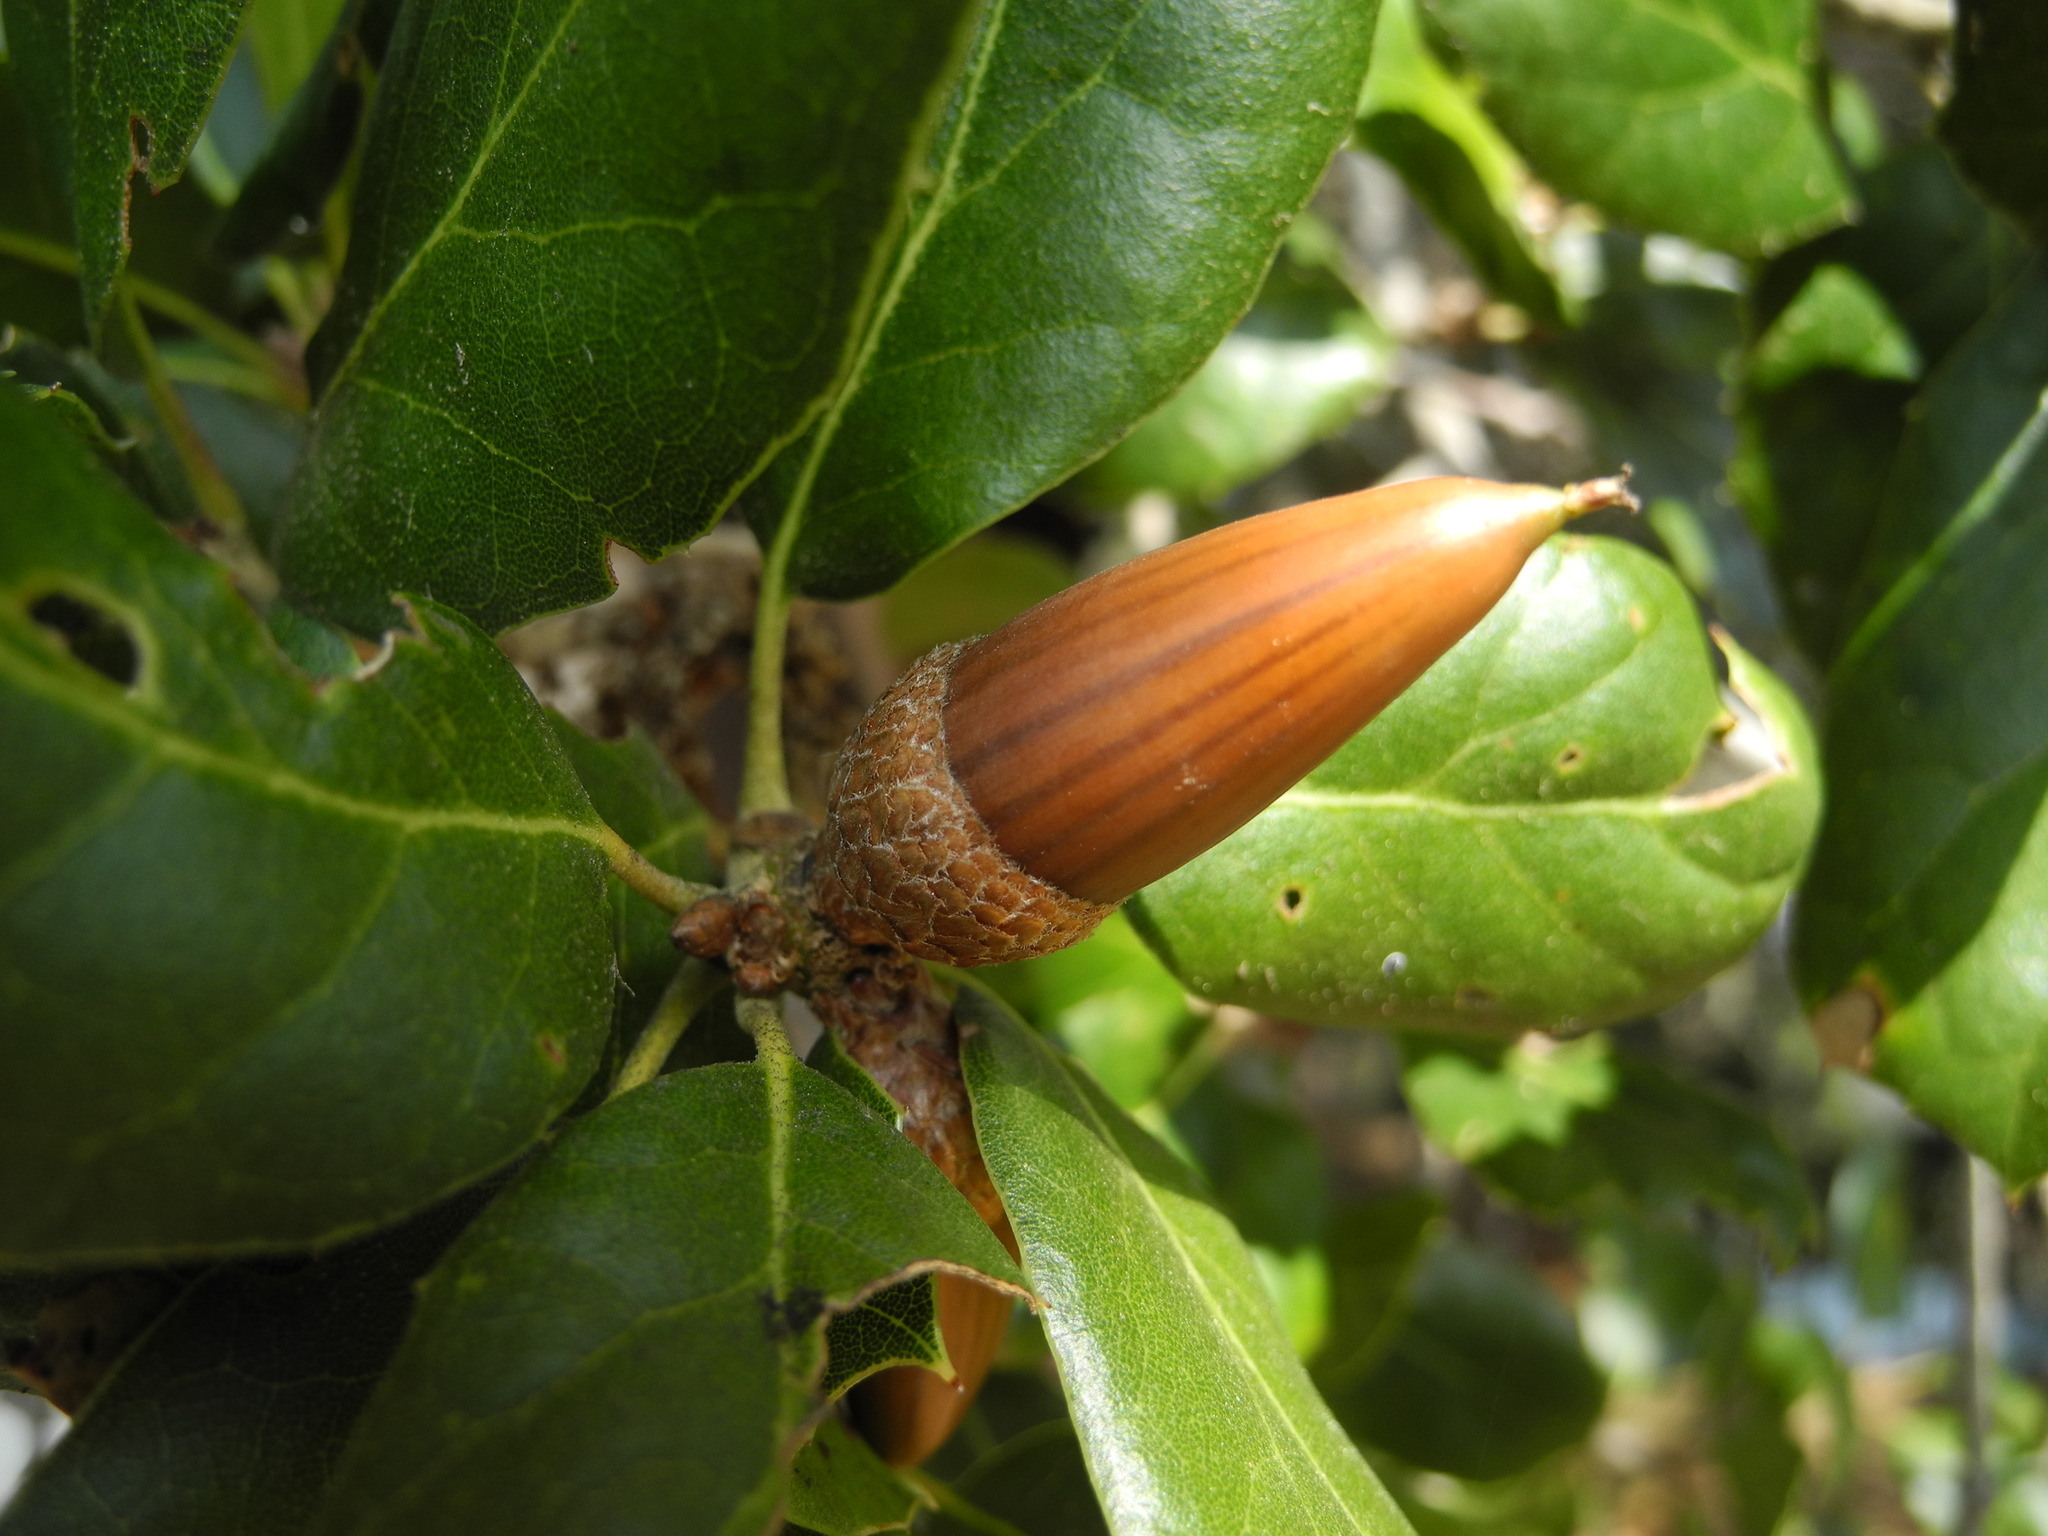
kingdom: Plantae
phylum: Tracheophyta
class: Magnoliopsida
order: Fagales
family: Fagaceae
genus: Quercus
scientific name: Quercus agrifolia
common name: California live oak
